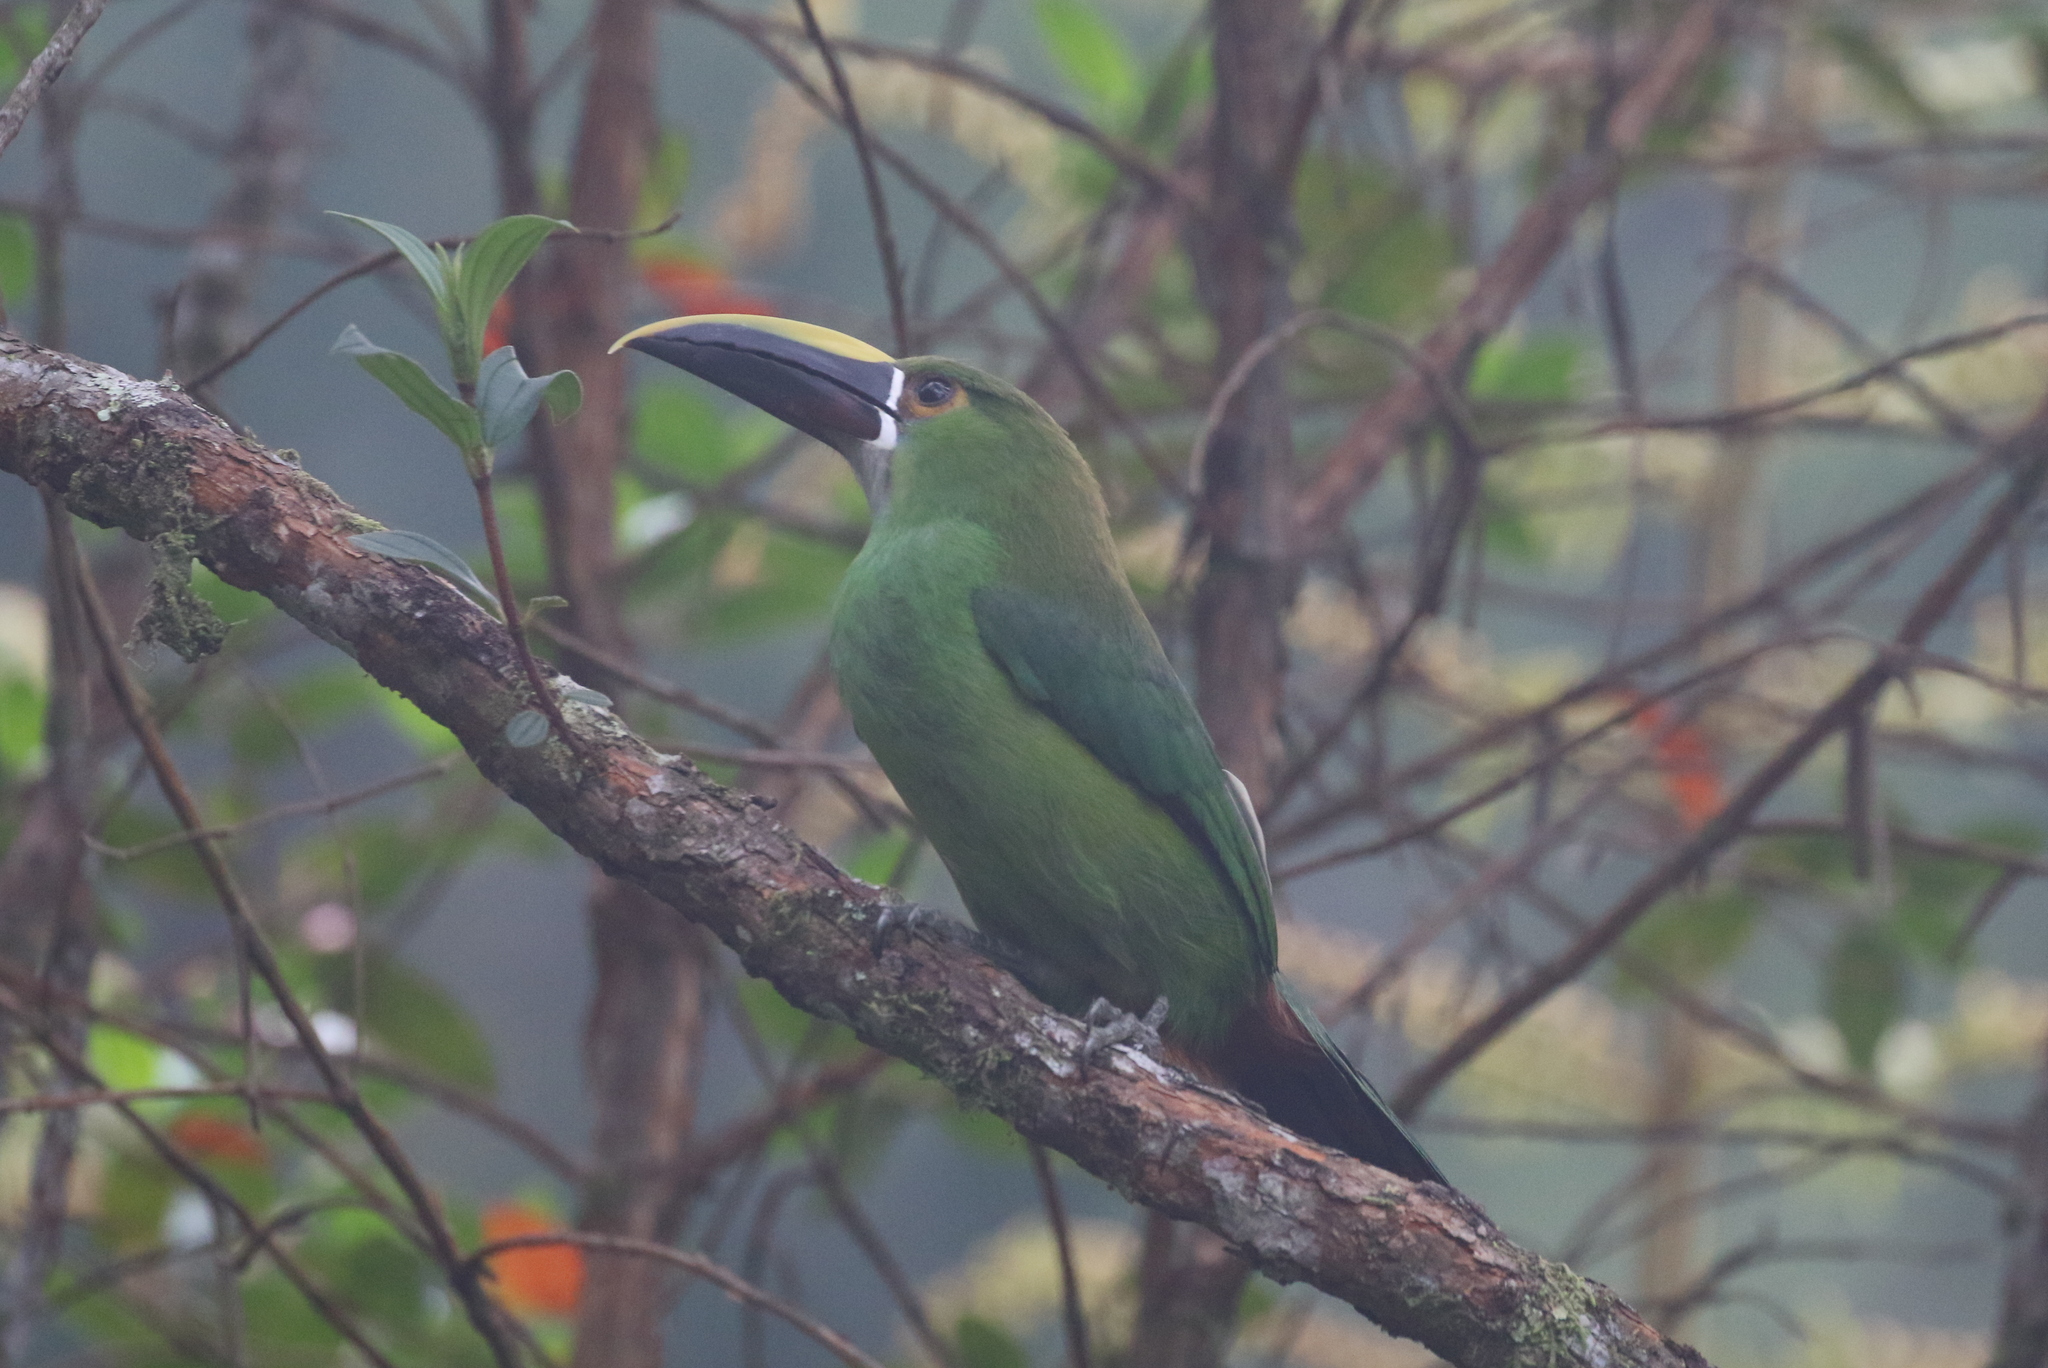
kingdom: Animalia
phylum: Chordata
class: Aves
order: Piciformes
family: Ramphastidae
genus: Aulacorhynchus
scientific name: Aulacorhynchus albivitta
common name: White-throated toucanet
